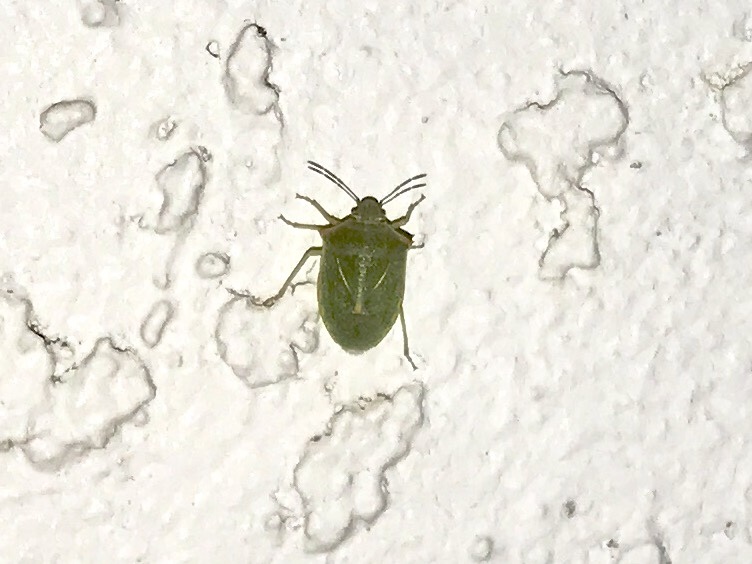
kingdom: Animalia
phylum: Arthropoda
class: Insecta
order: Hemiptera
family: Pentatomidae
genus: Thyanta
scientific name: Thyanta accerra
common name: Stink bug
